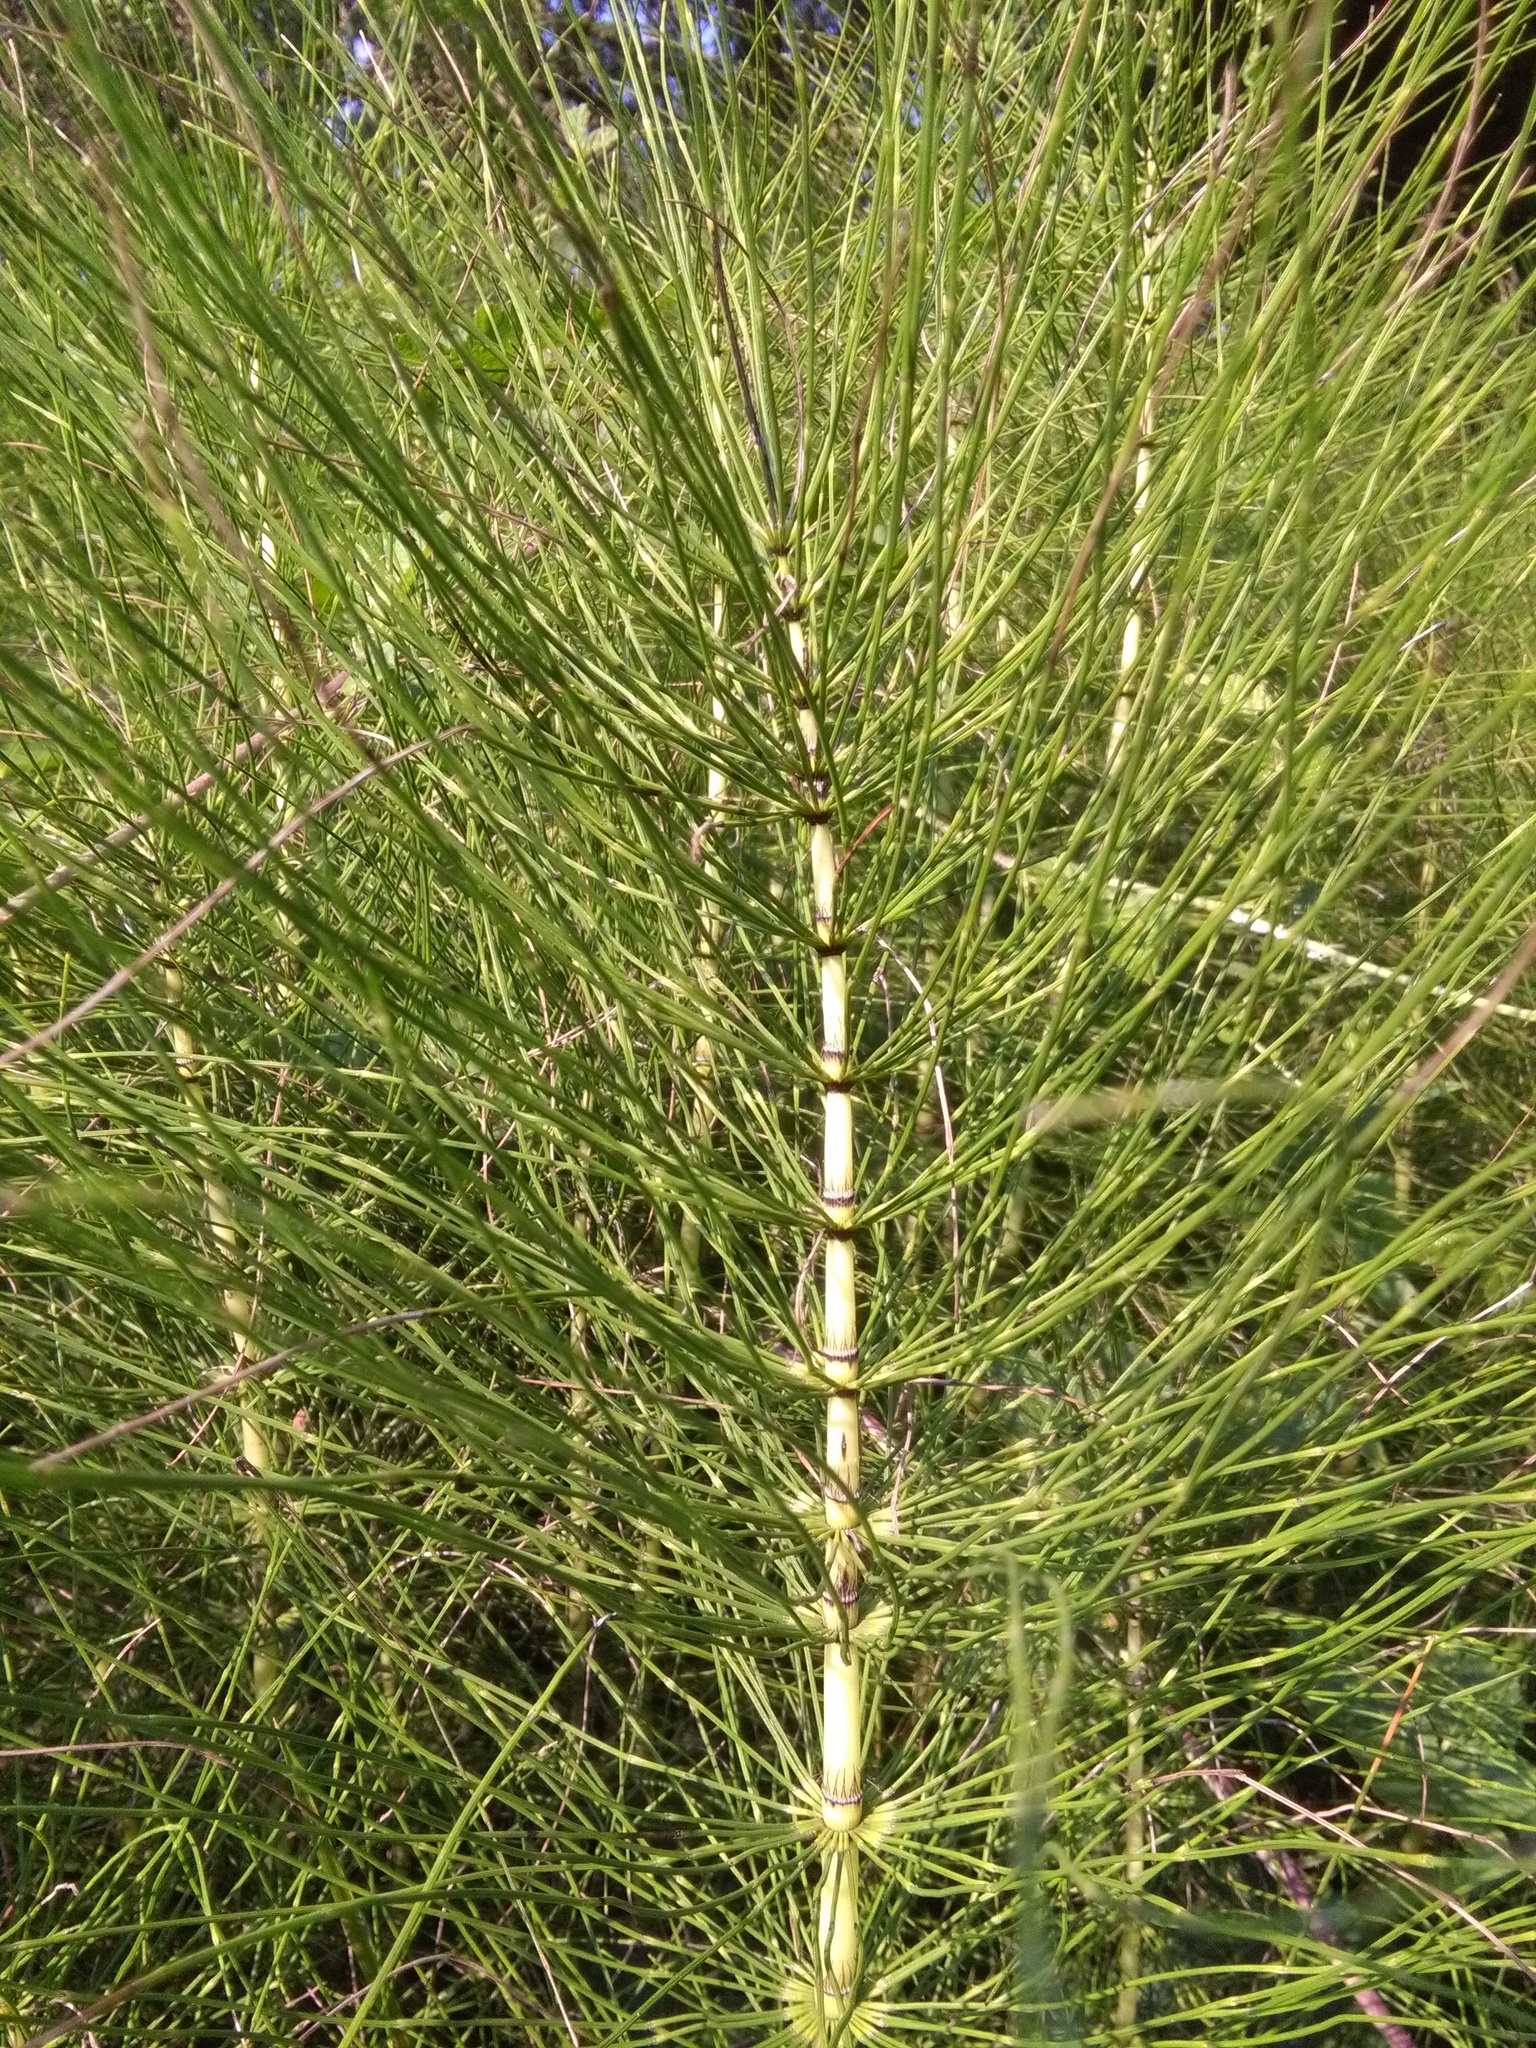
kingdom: Plantae
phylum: Tracheophyta
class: Polypodiopsida
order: Equisetales
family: Equisetaceae
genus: Equisetum
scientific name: Equisetum telmateia
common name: Great horsetail
